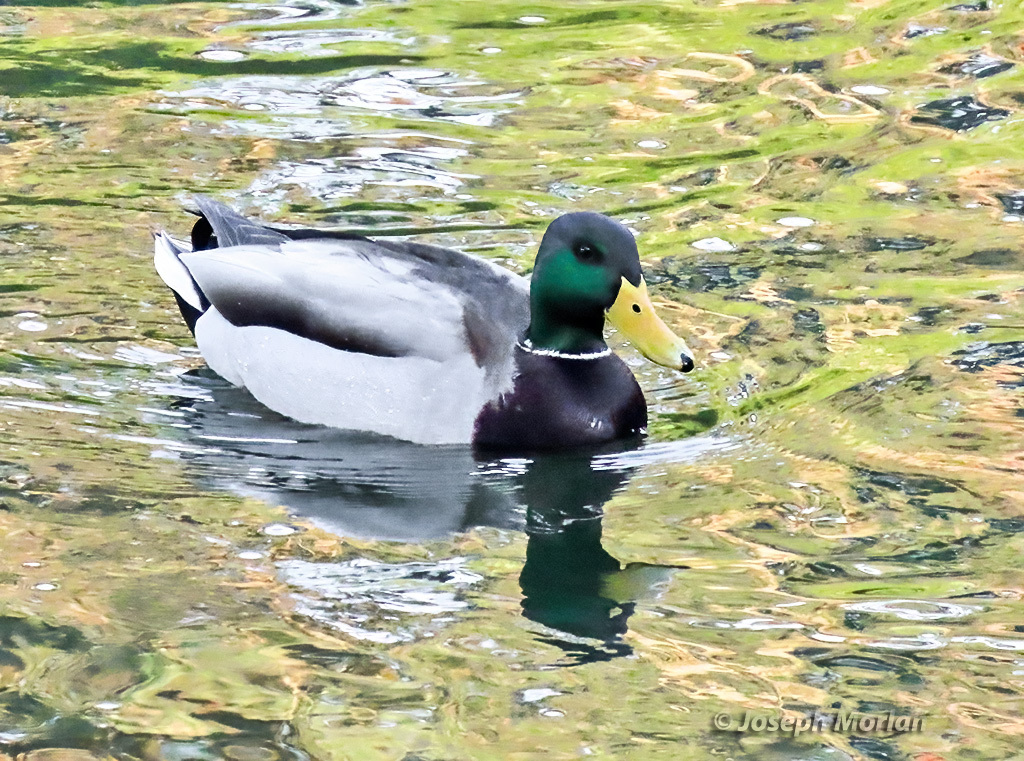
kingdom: Animalia
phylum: Chordata
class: Aves
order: Anseriformes
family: Anatidae
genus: Anas
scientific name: Anas platyrhynchos
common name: Mallard
